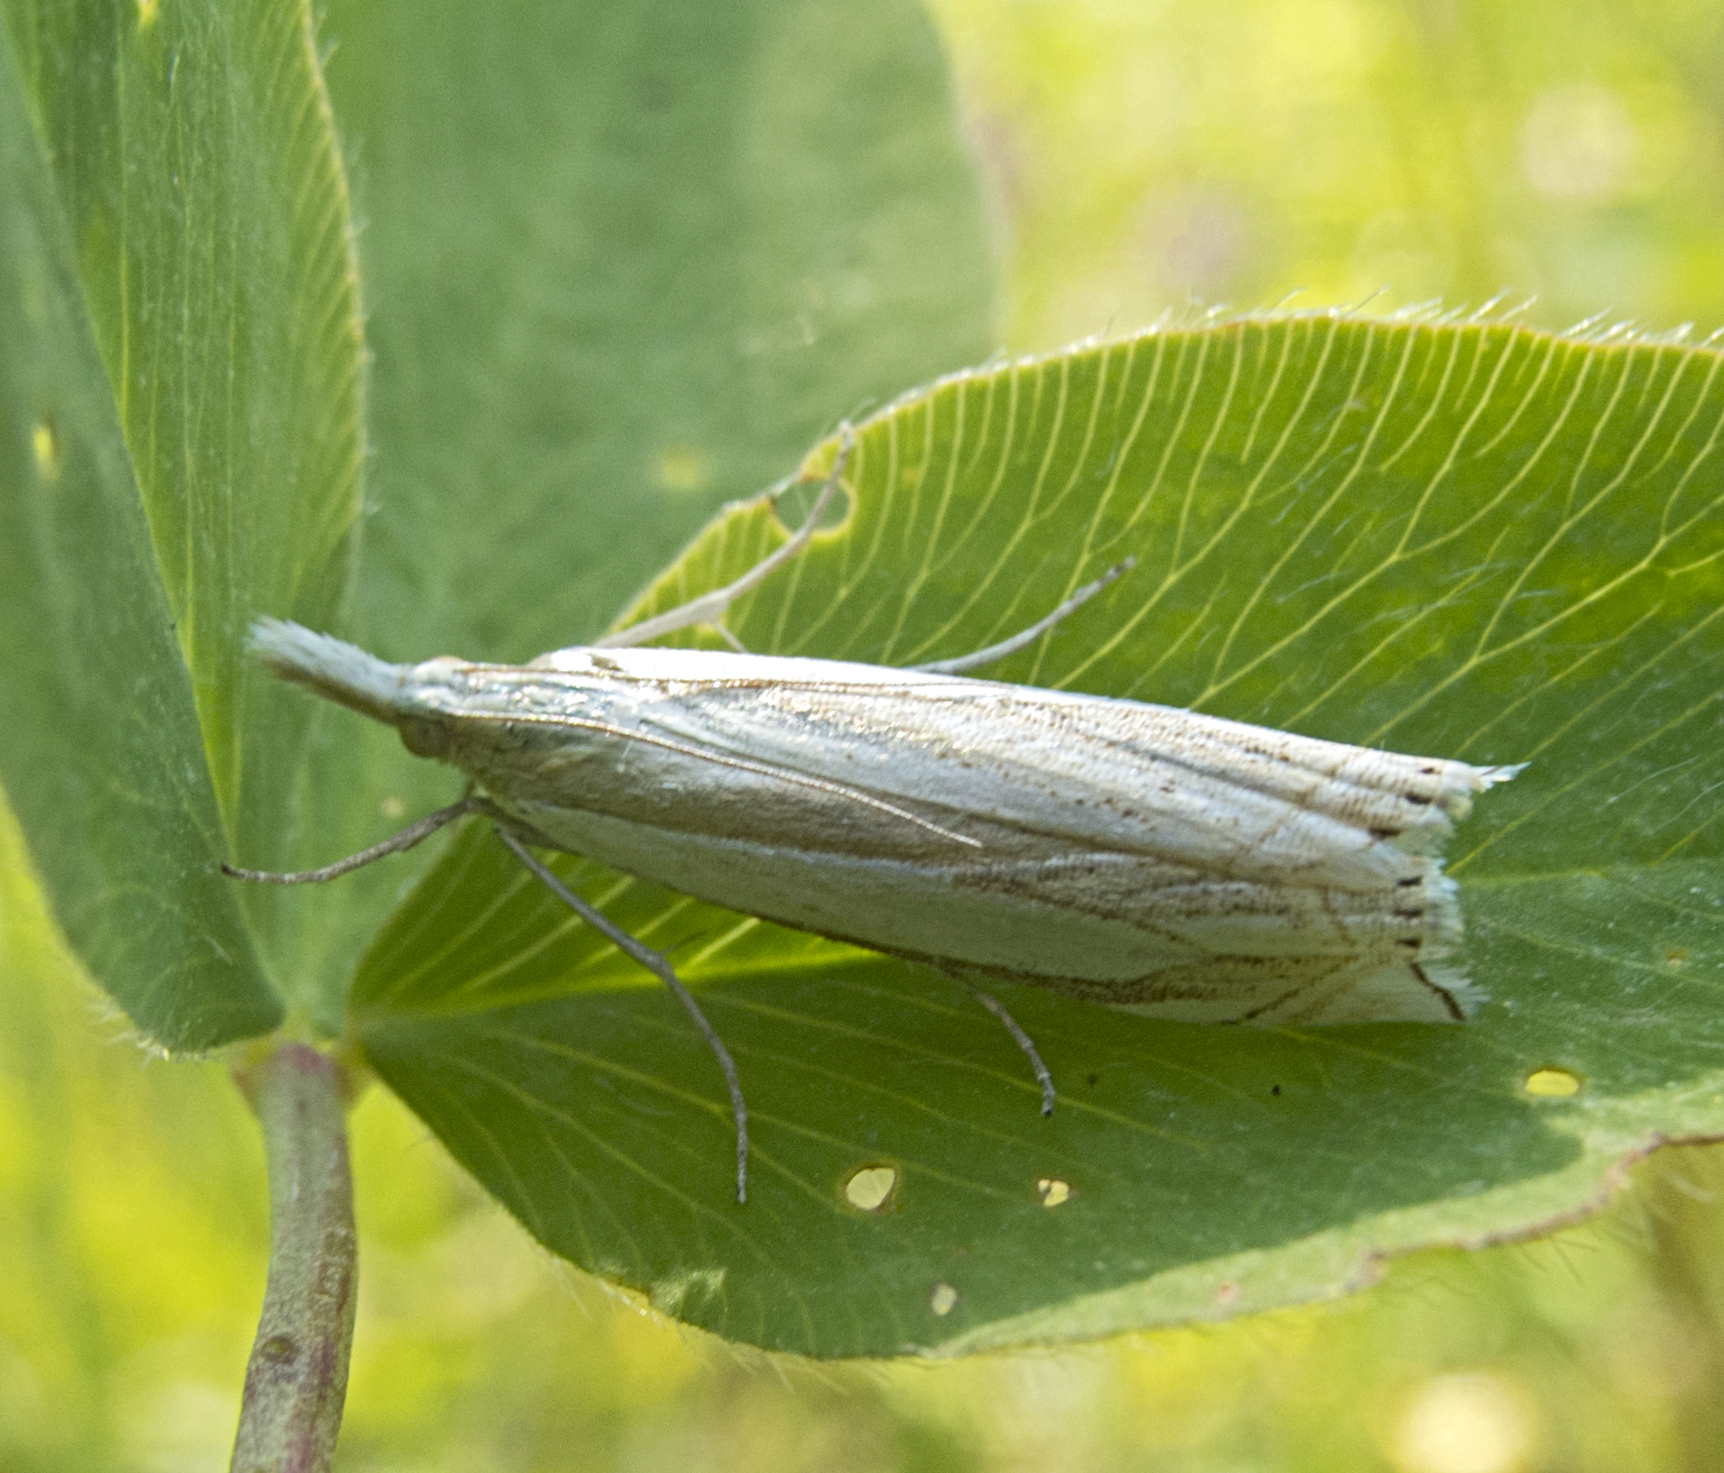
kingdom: Animalia
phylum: Arthropoda
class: Insecta
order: Lepidoptera
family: Crambidae
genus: Crambus
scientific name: Crambus pascuella
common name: Inlaid grass-veneer
